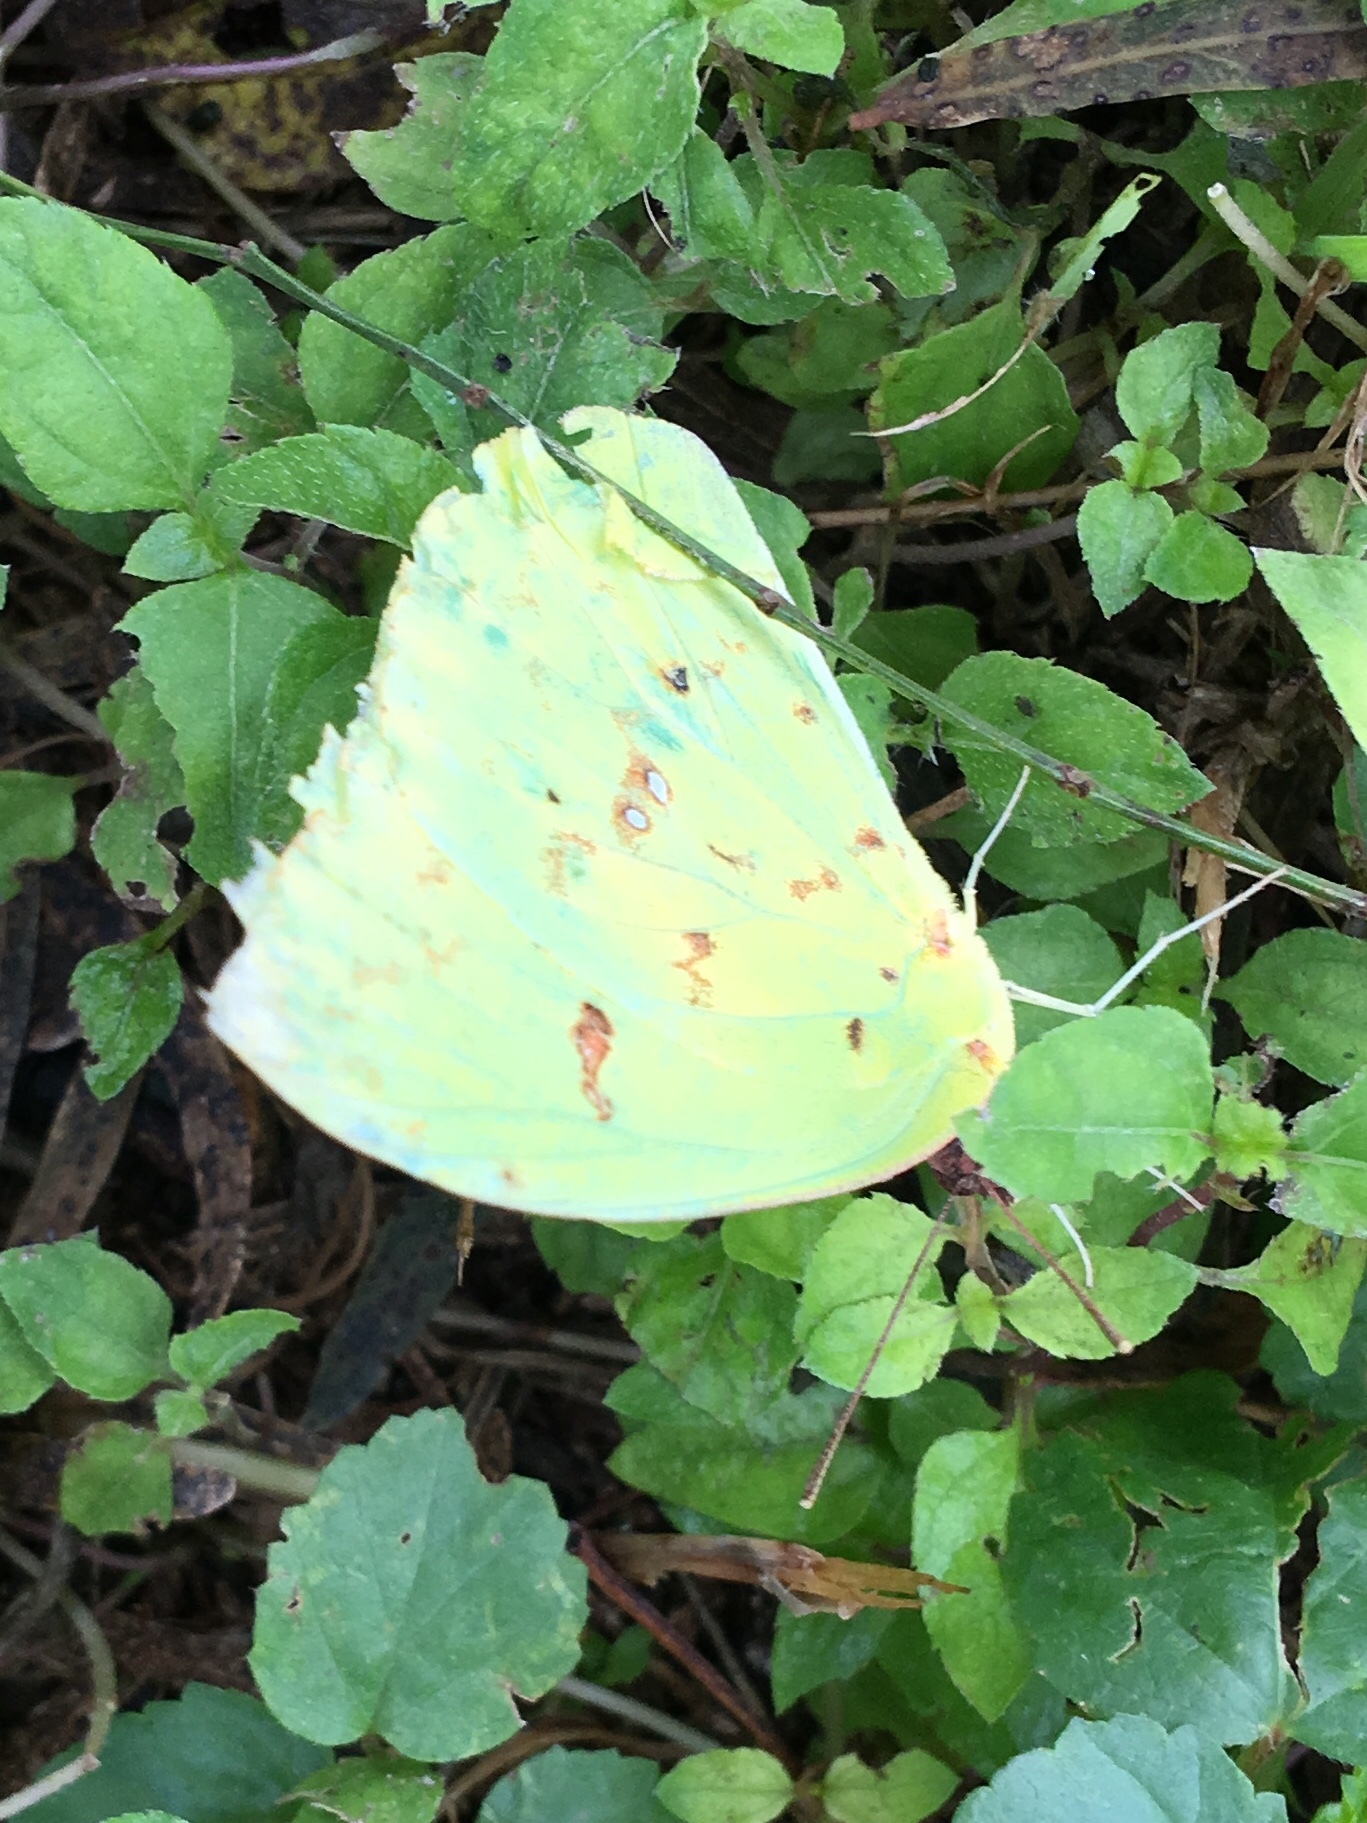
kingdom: Animalia
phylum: Arthropoda
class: Insecta
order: Lepidoptera
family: Pieridae
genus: Phoebis
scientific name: Phoebis sennae
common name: Cloudless sulphur
